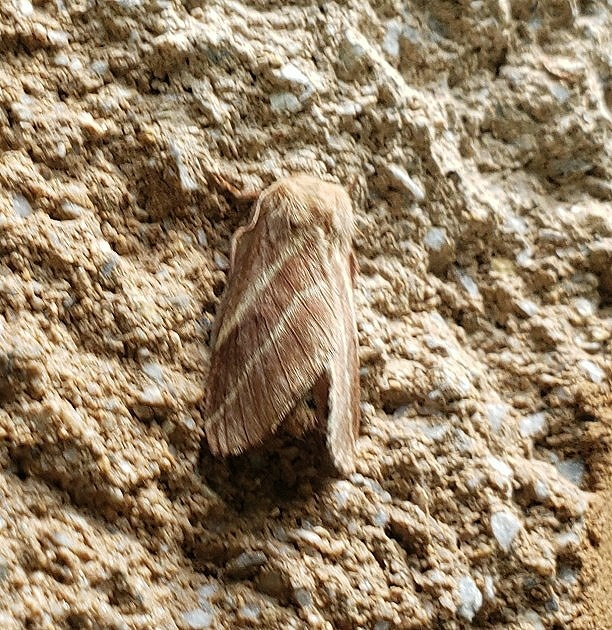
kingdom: Animalia
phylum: Arthropoda
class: Insecta
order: Lepidoptera
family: Lasiocampidae
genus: Malacosoma
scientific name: Malacosoma americana
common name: Eastern tent caterpillar moth
